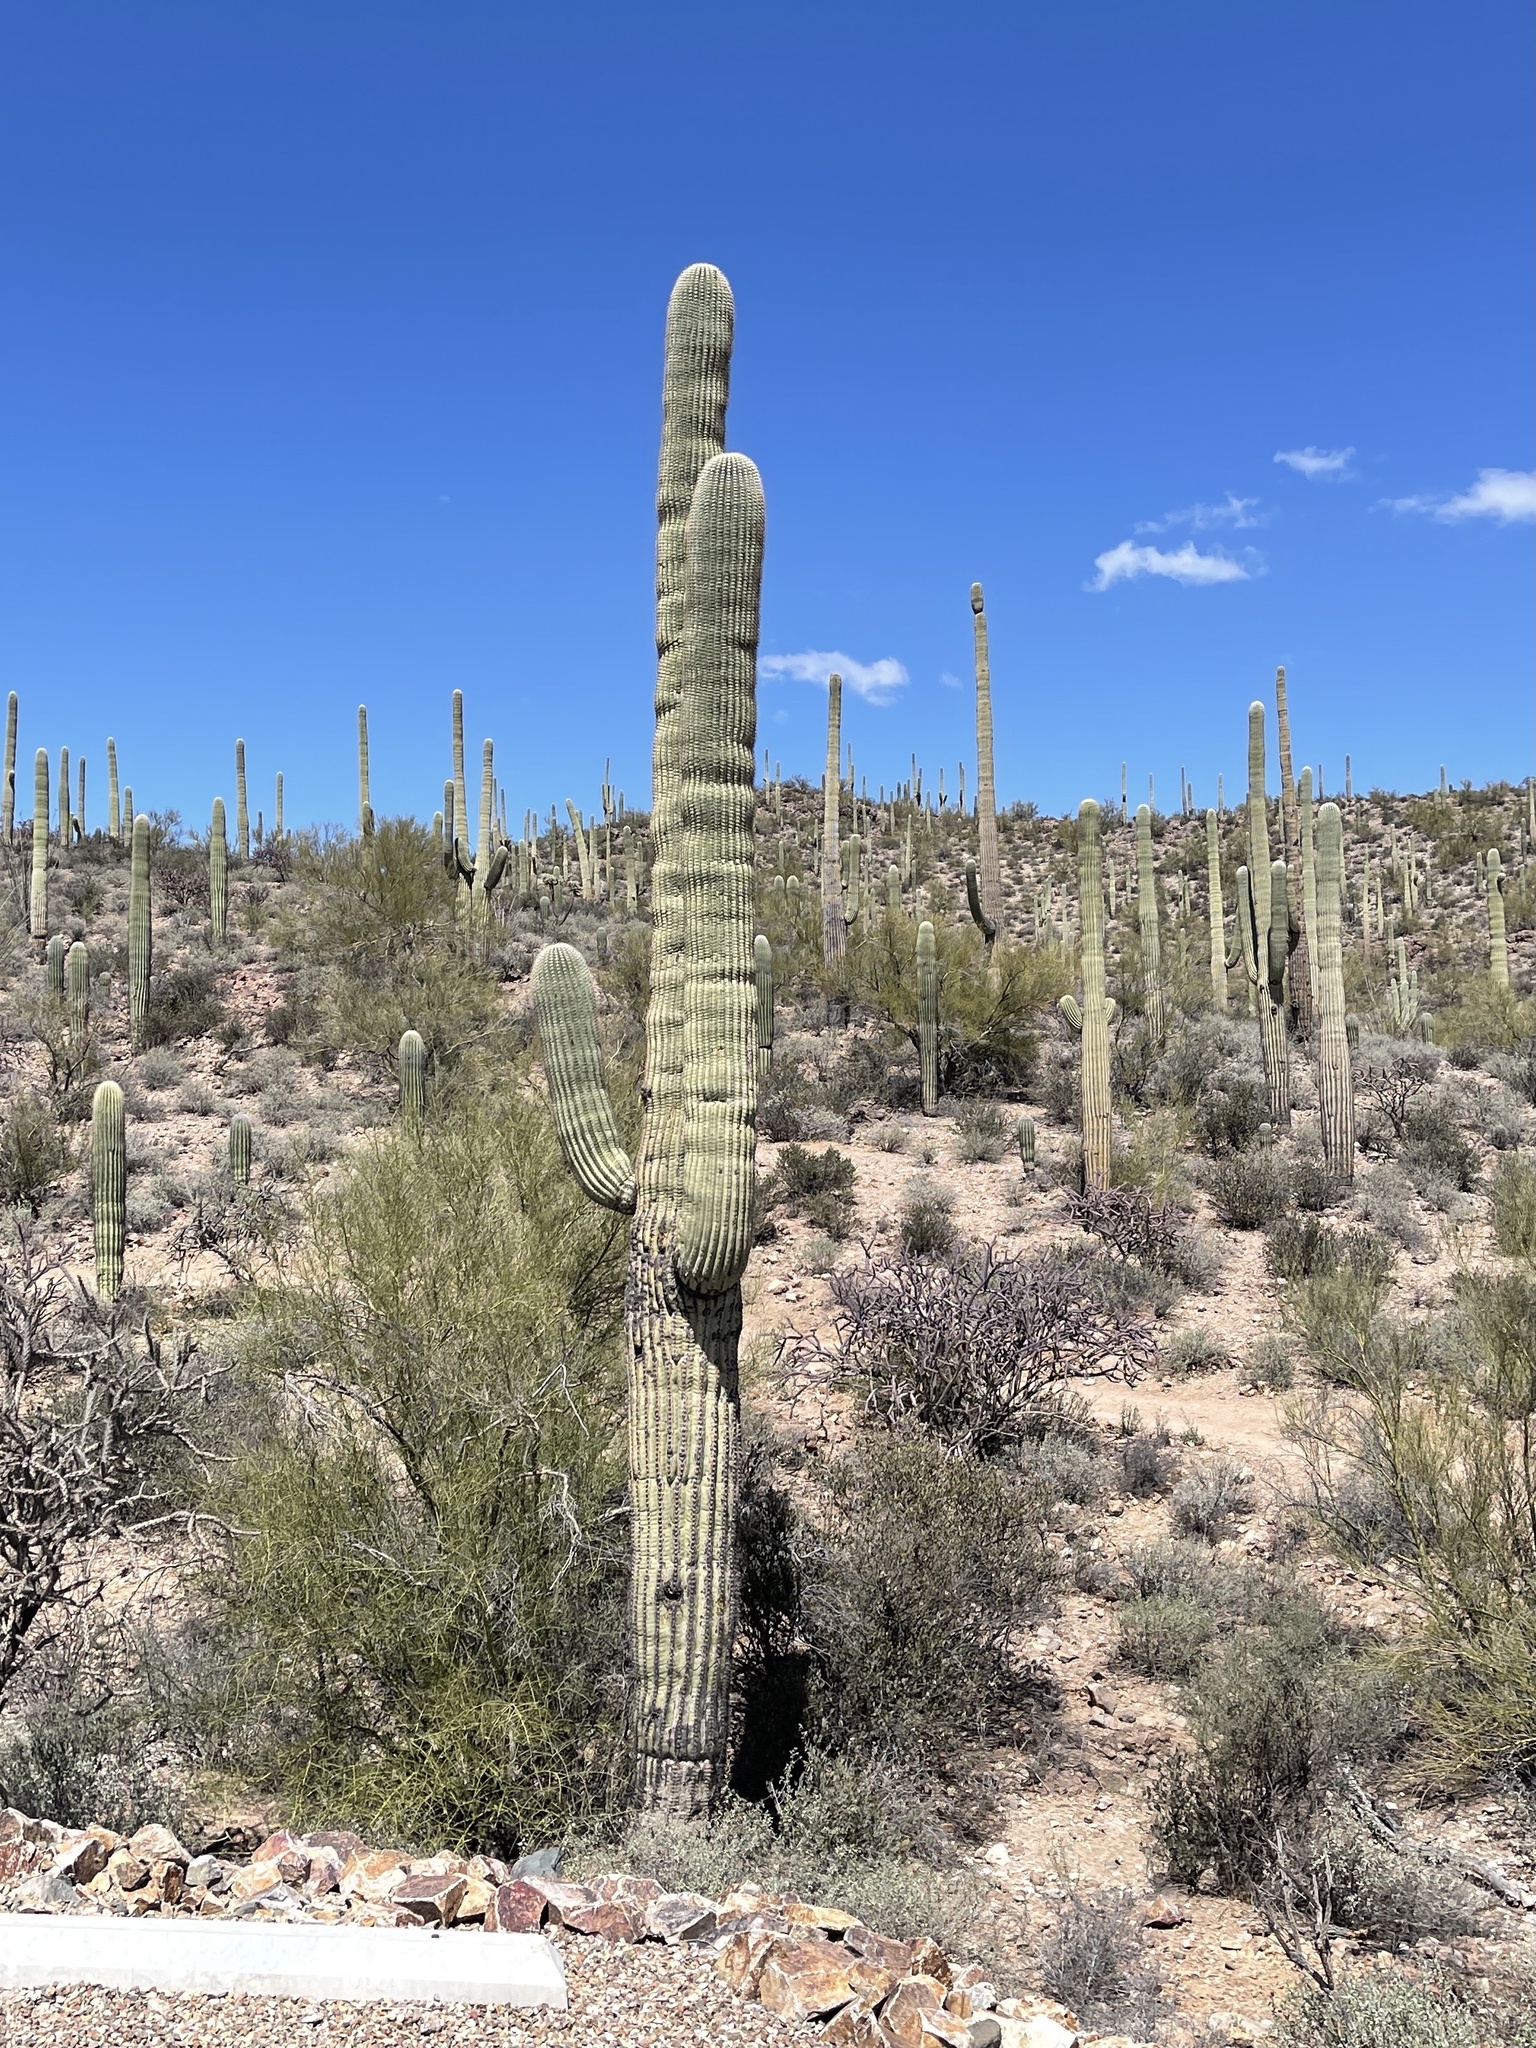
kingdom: Plantae
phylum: Tracheophyta
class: Magnoliopsida
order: Caryophyllales
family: Cactaceae
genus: Carnegiea
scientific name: Carnegiea gigantea
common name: Saguaro
